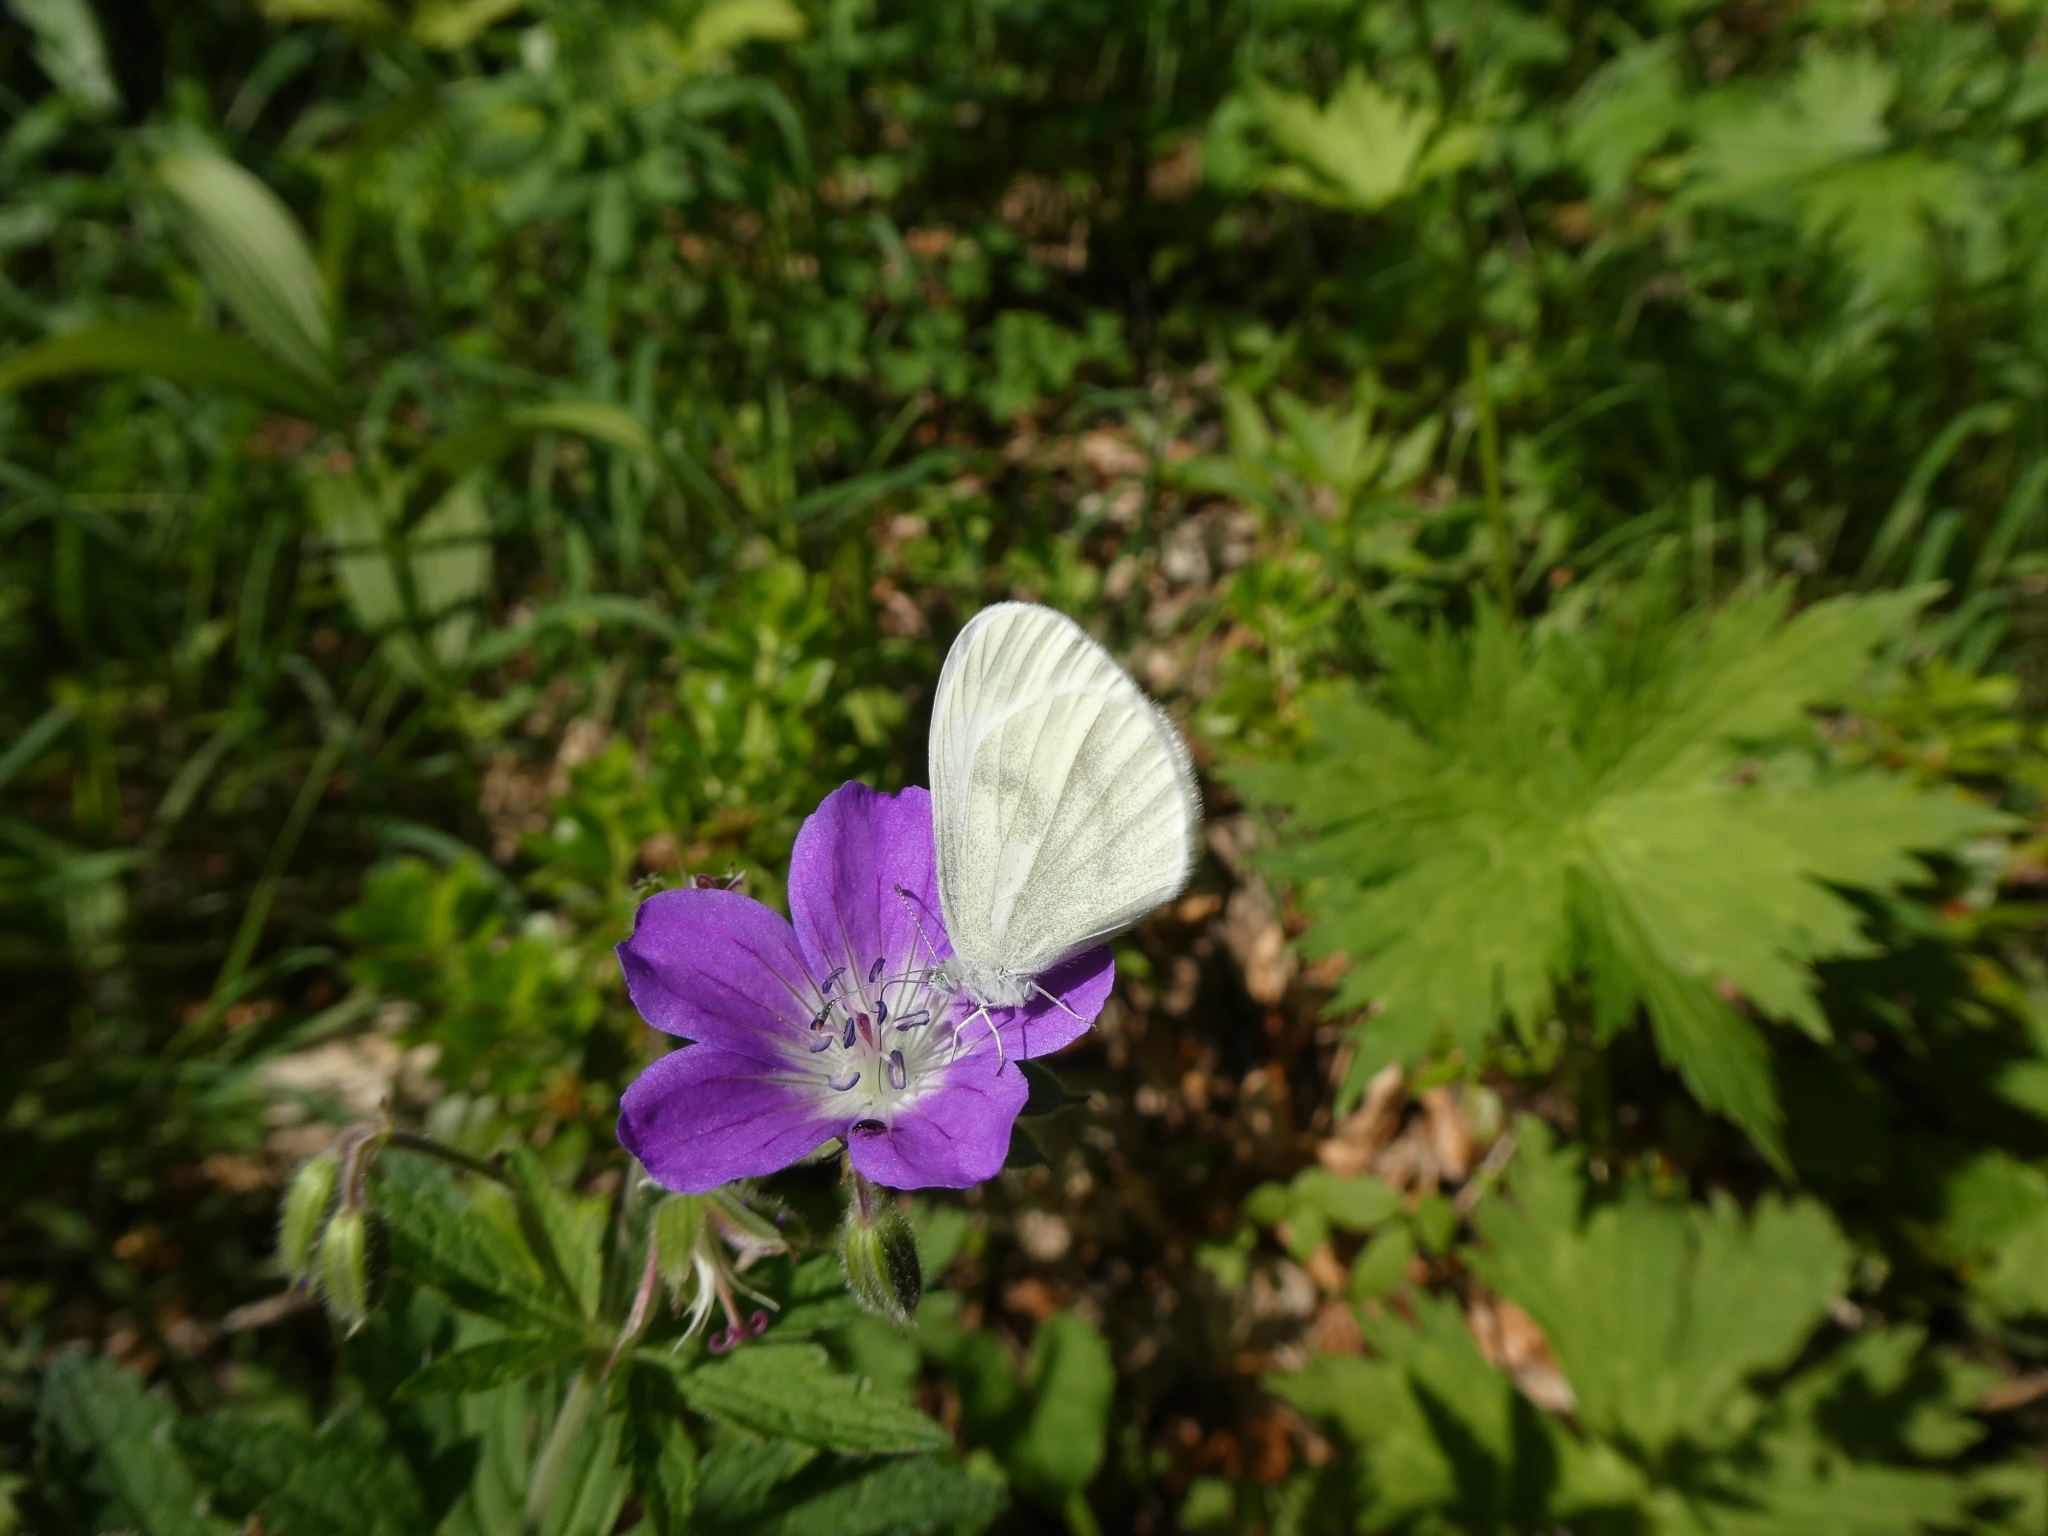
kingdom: Animalia
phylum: Arthropoda
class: Insecta
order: Lepidoptera
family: Pieridae
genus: Leptidea
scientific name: Leptidea
